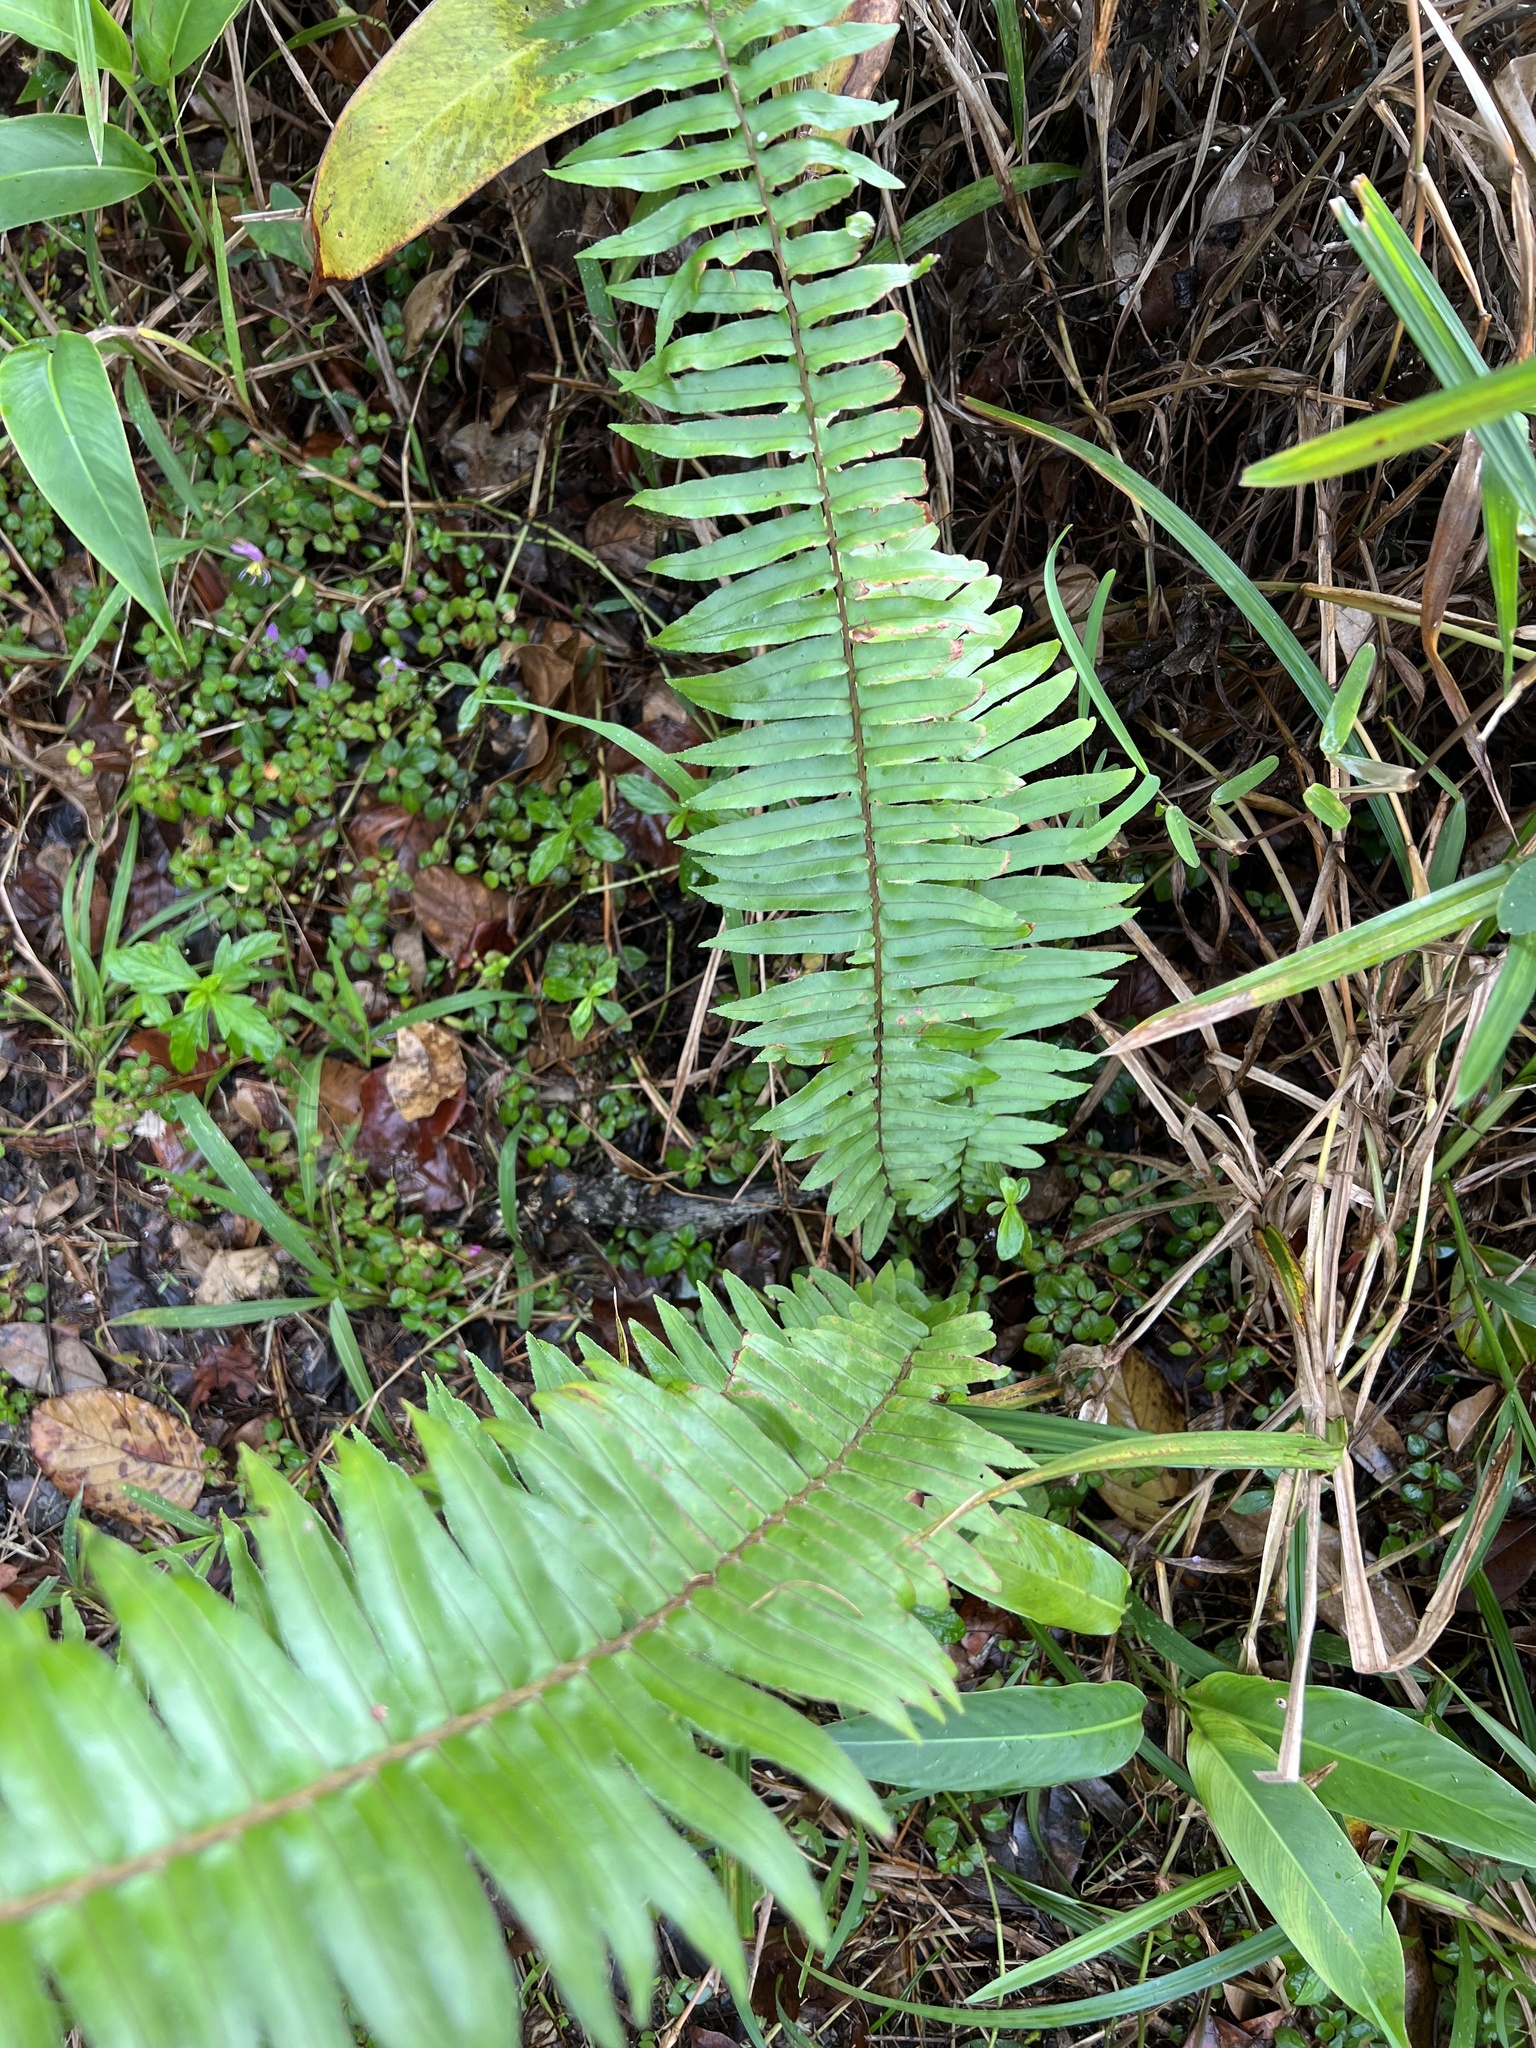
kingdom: Plantae
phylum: Tracheophyta
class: Polypodiopsida
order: Polypodiales
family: Nephrolepidaceae
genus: Nephrolepis
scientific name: Nephrolepis brownii
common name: Asian swordfern
